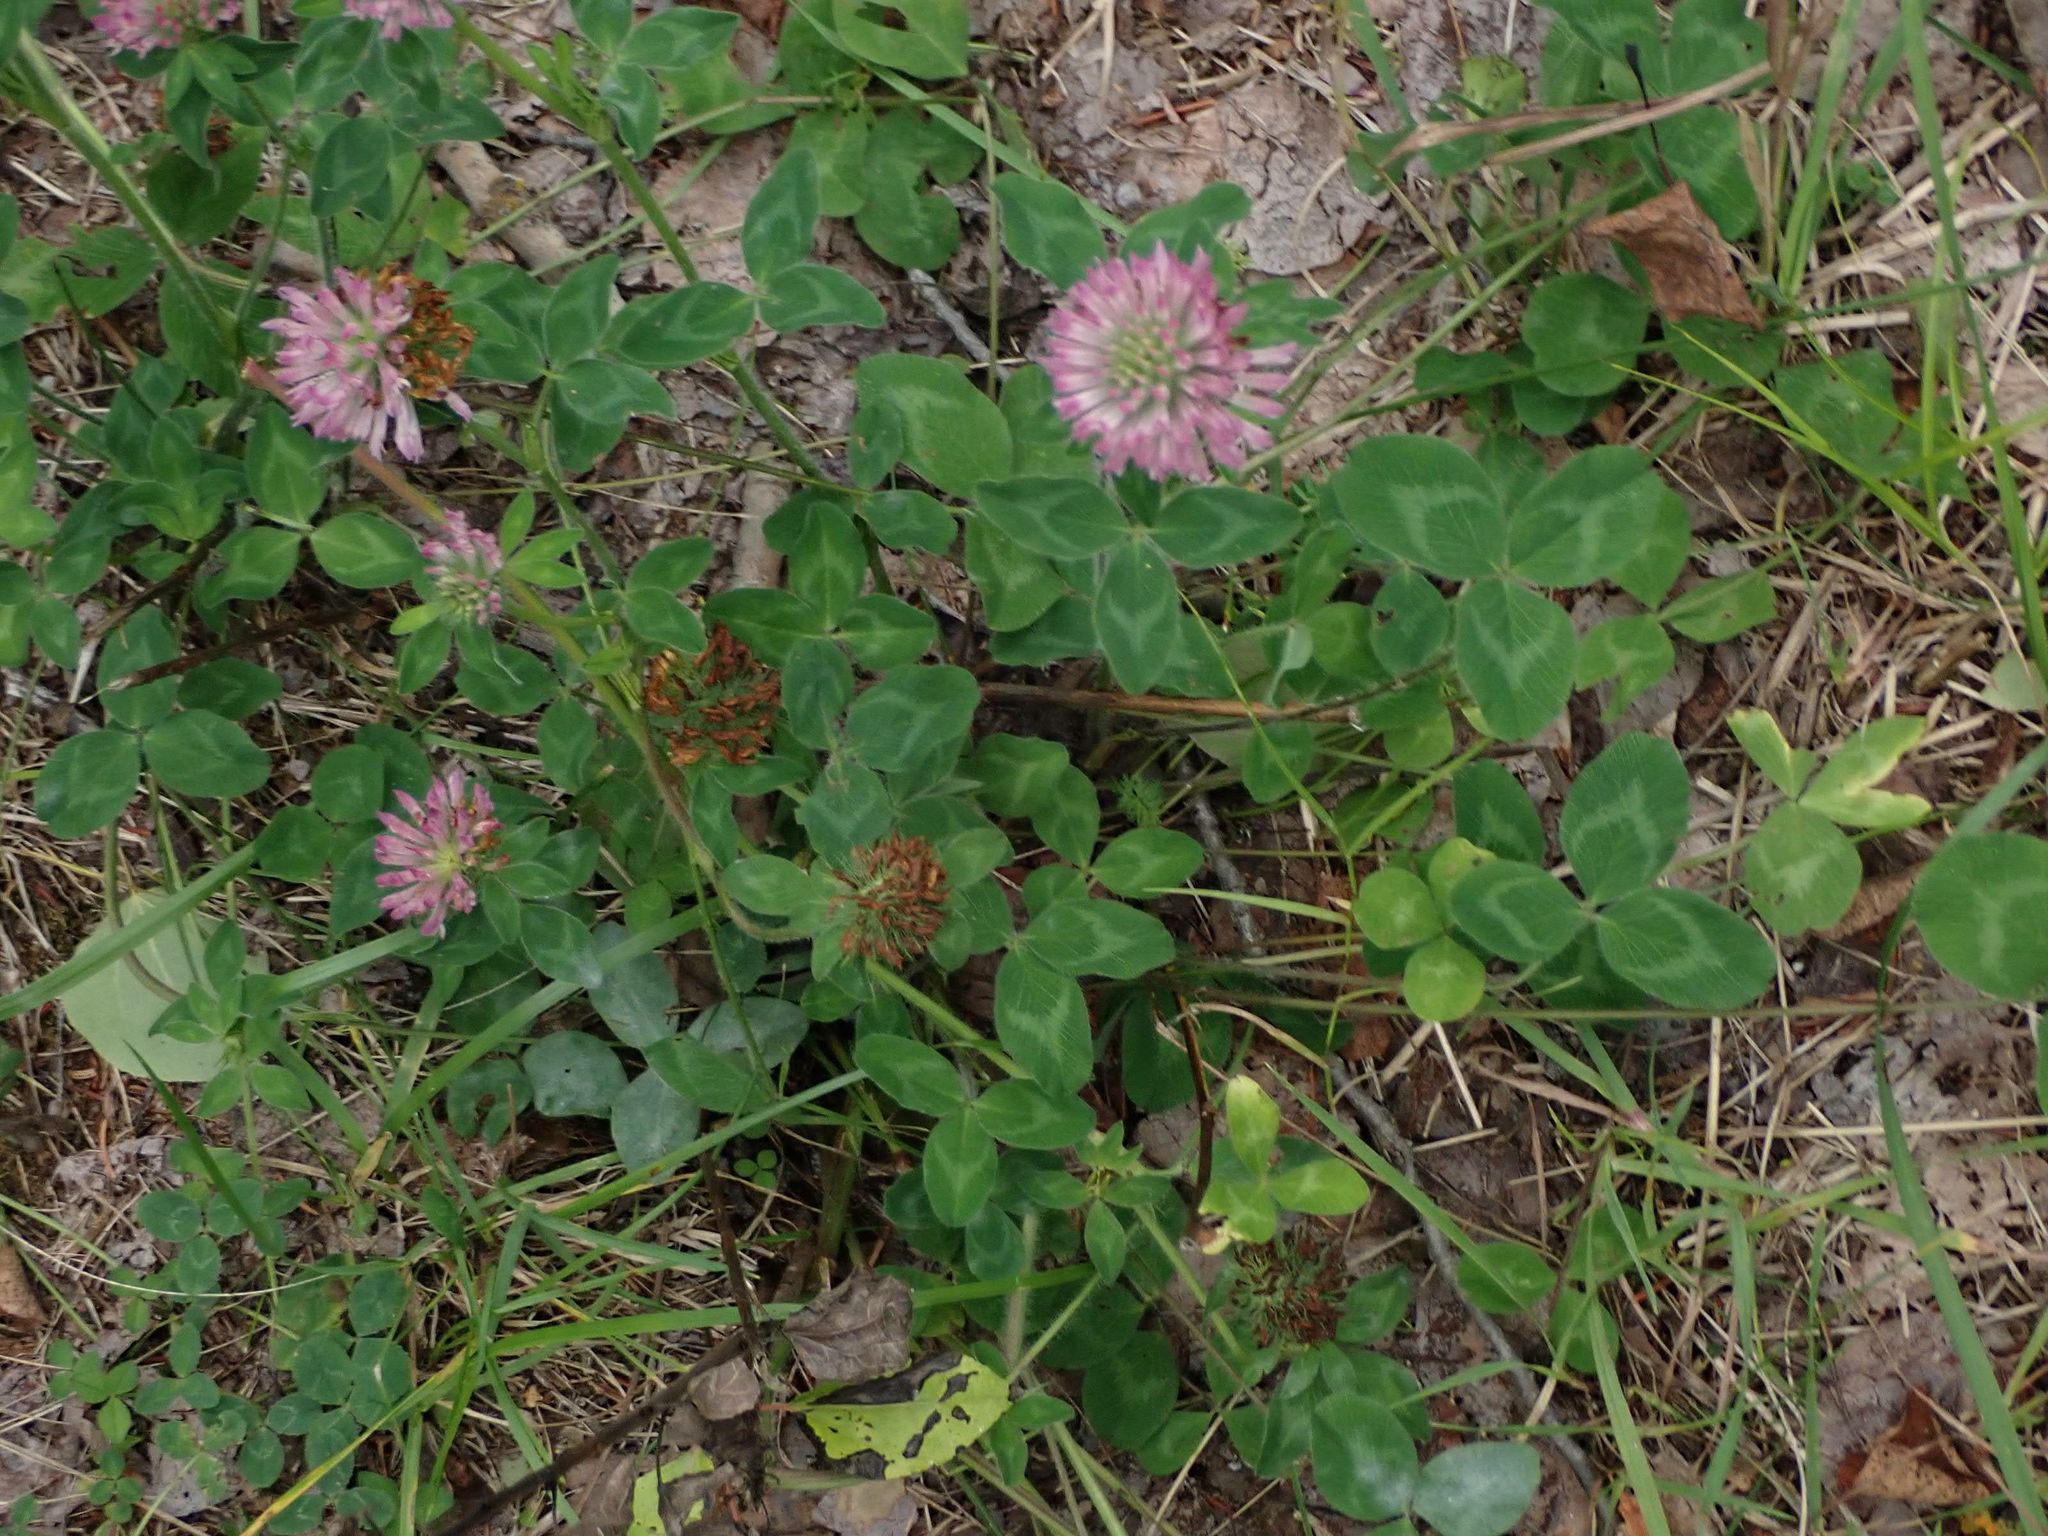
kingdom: Plantae
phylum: Tracheophyta
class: Magnoliopsida
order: Fabales
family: Fabaceae
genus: Trifolium
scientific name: Trifolium pratense
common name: Red clover
